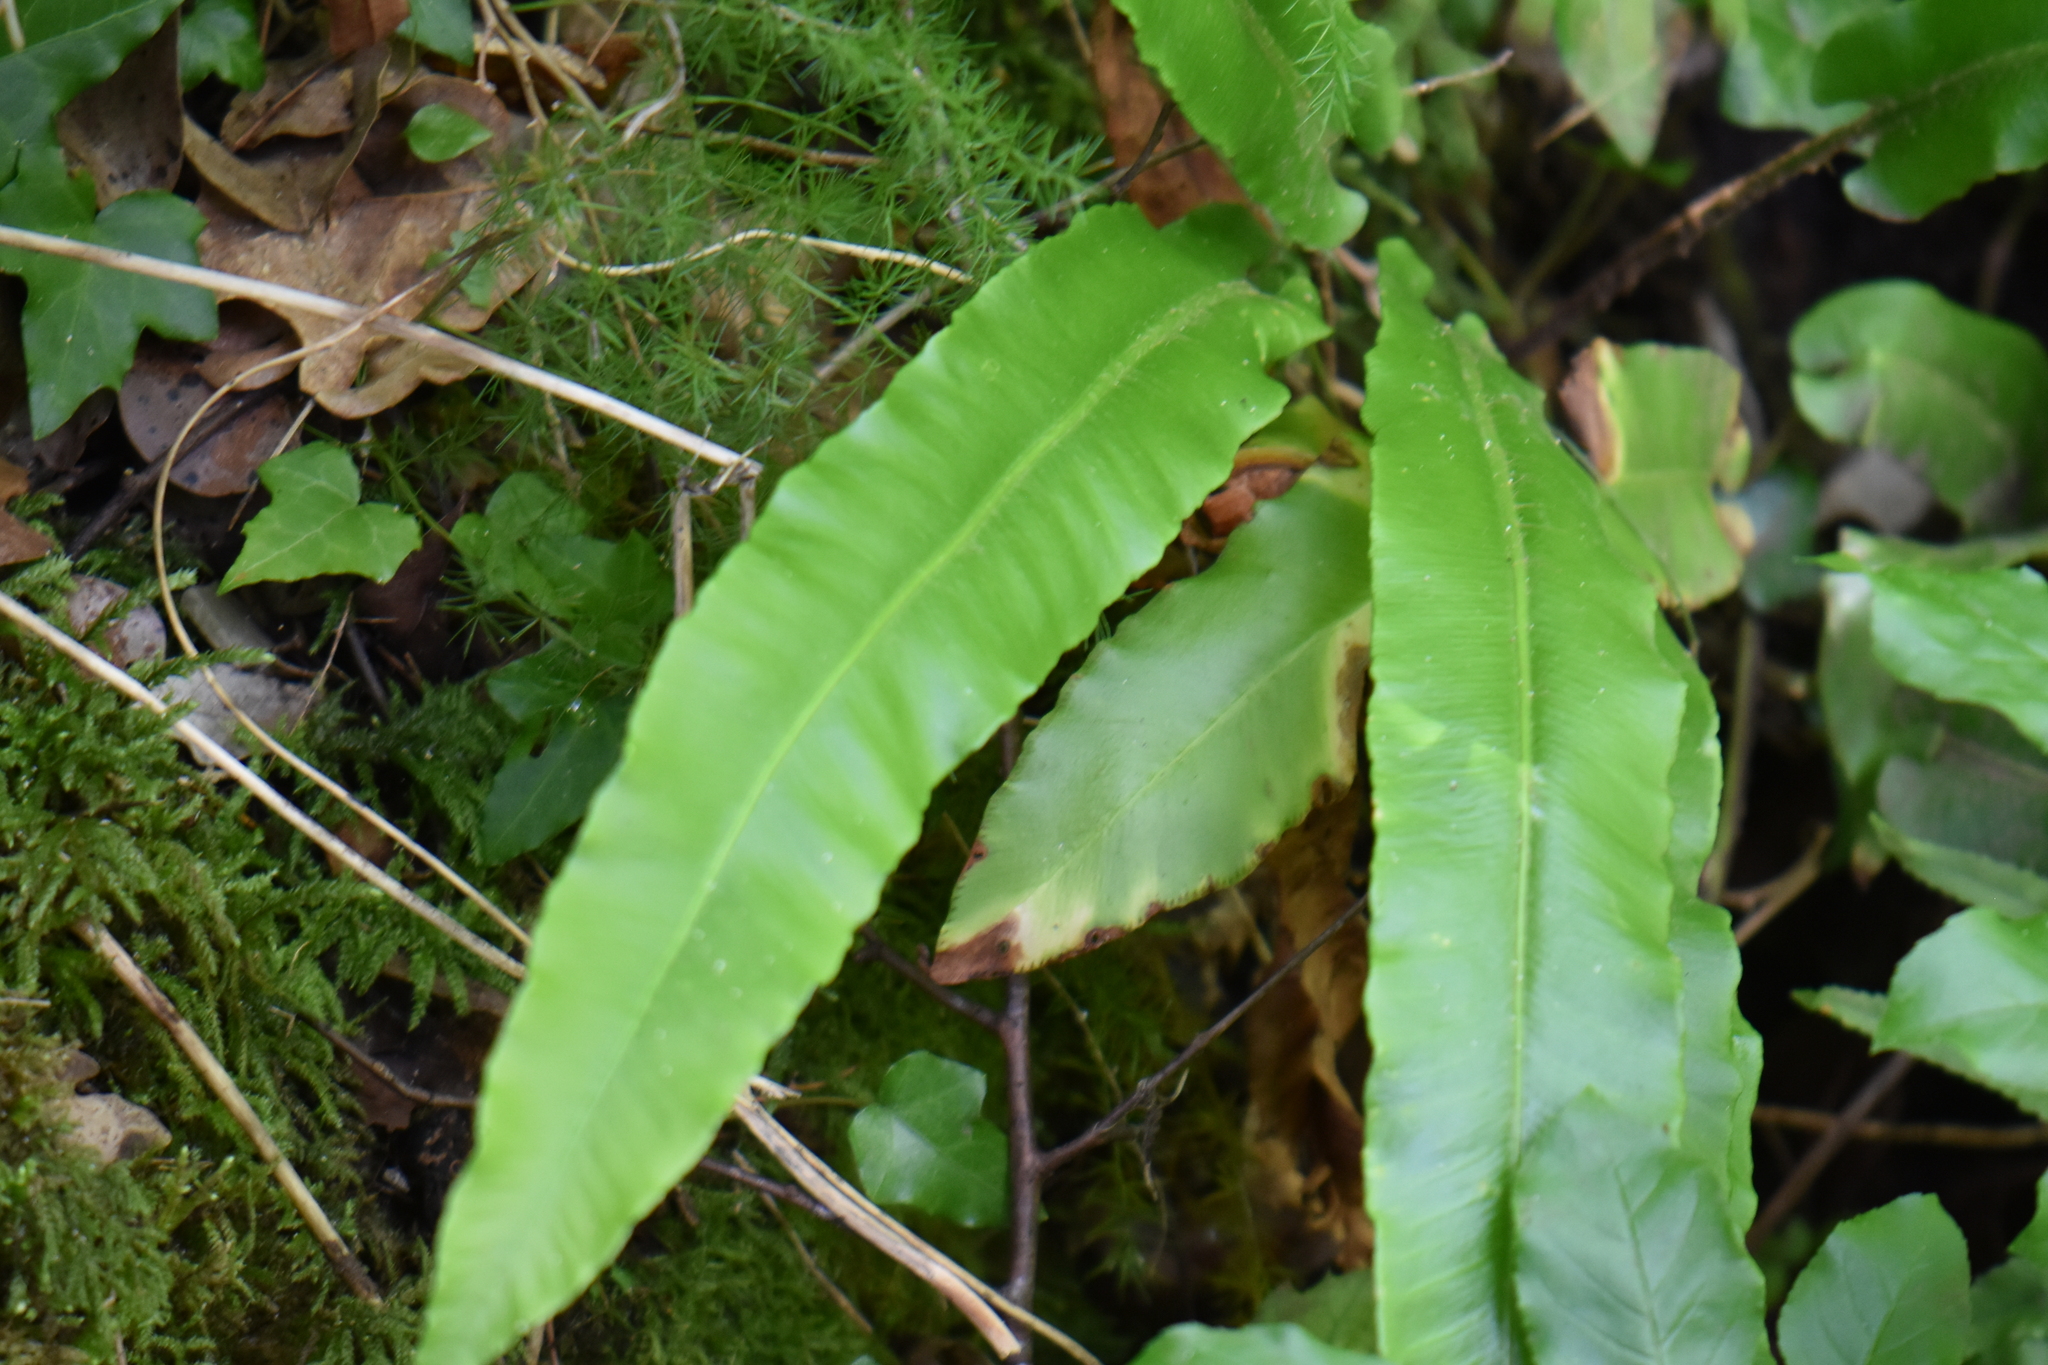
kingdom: Plantae
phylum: Tracheophyta
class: Polypodiopsida
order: Polypodiales
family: Aspleniaceae
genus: Asplenium
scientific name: Asplenium scolopendrium
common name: Hart's-tongue fern
